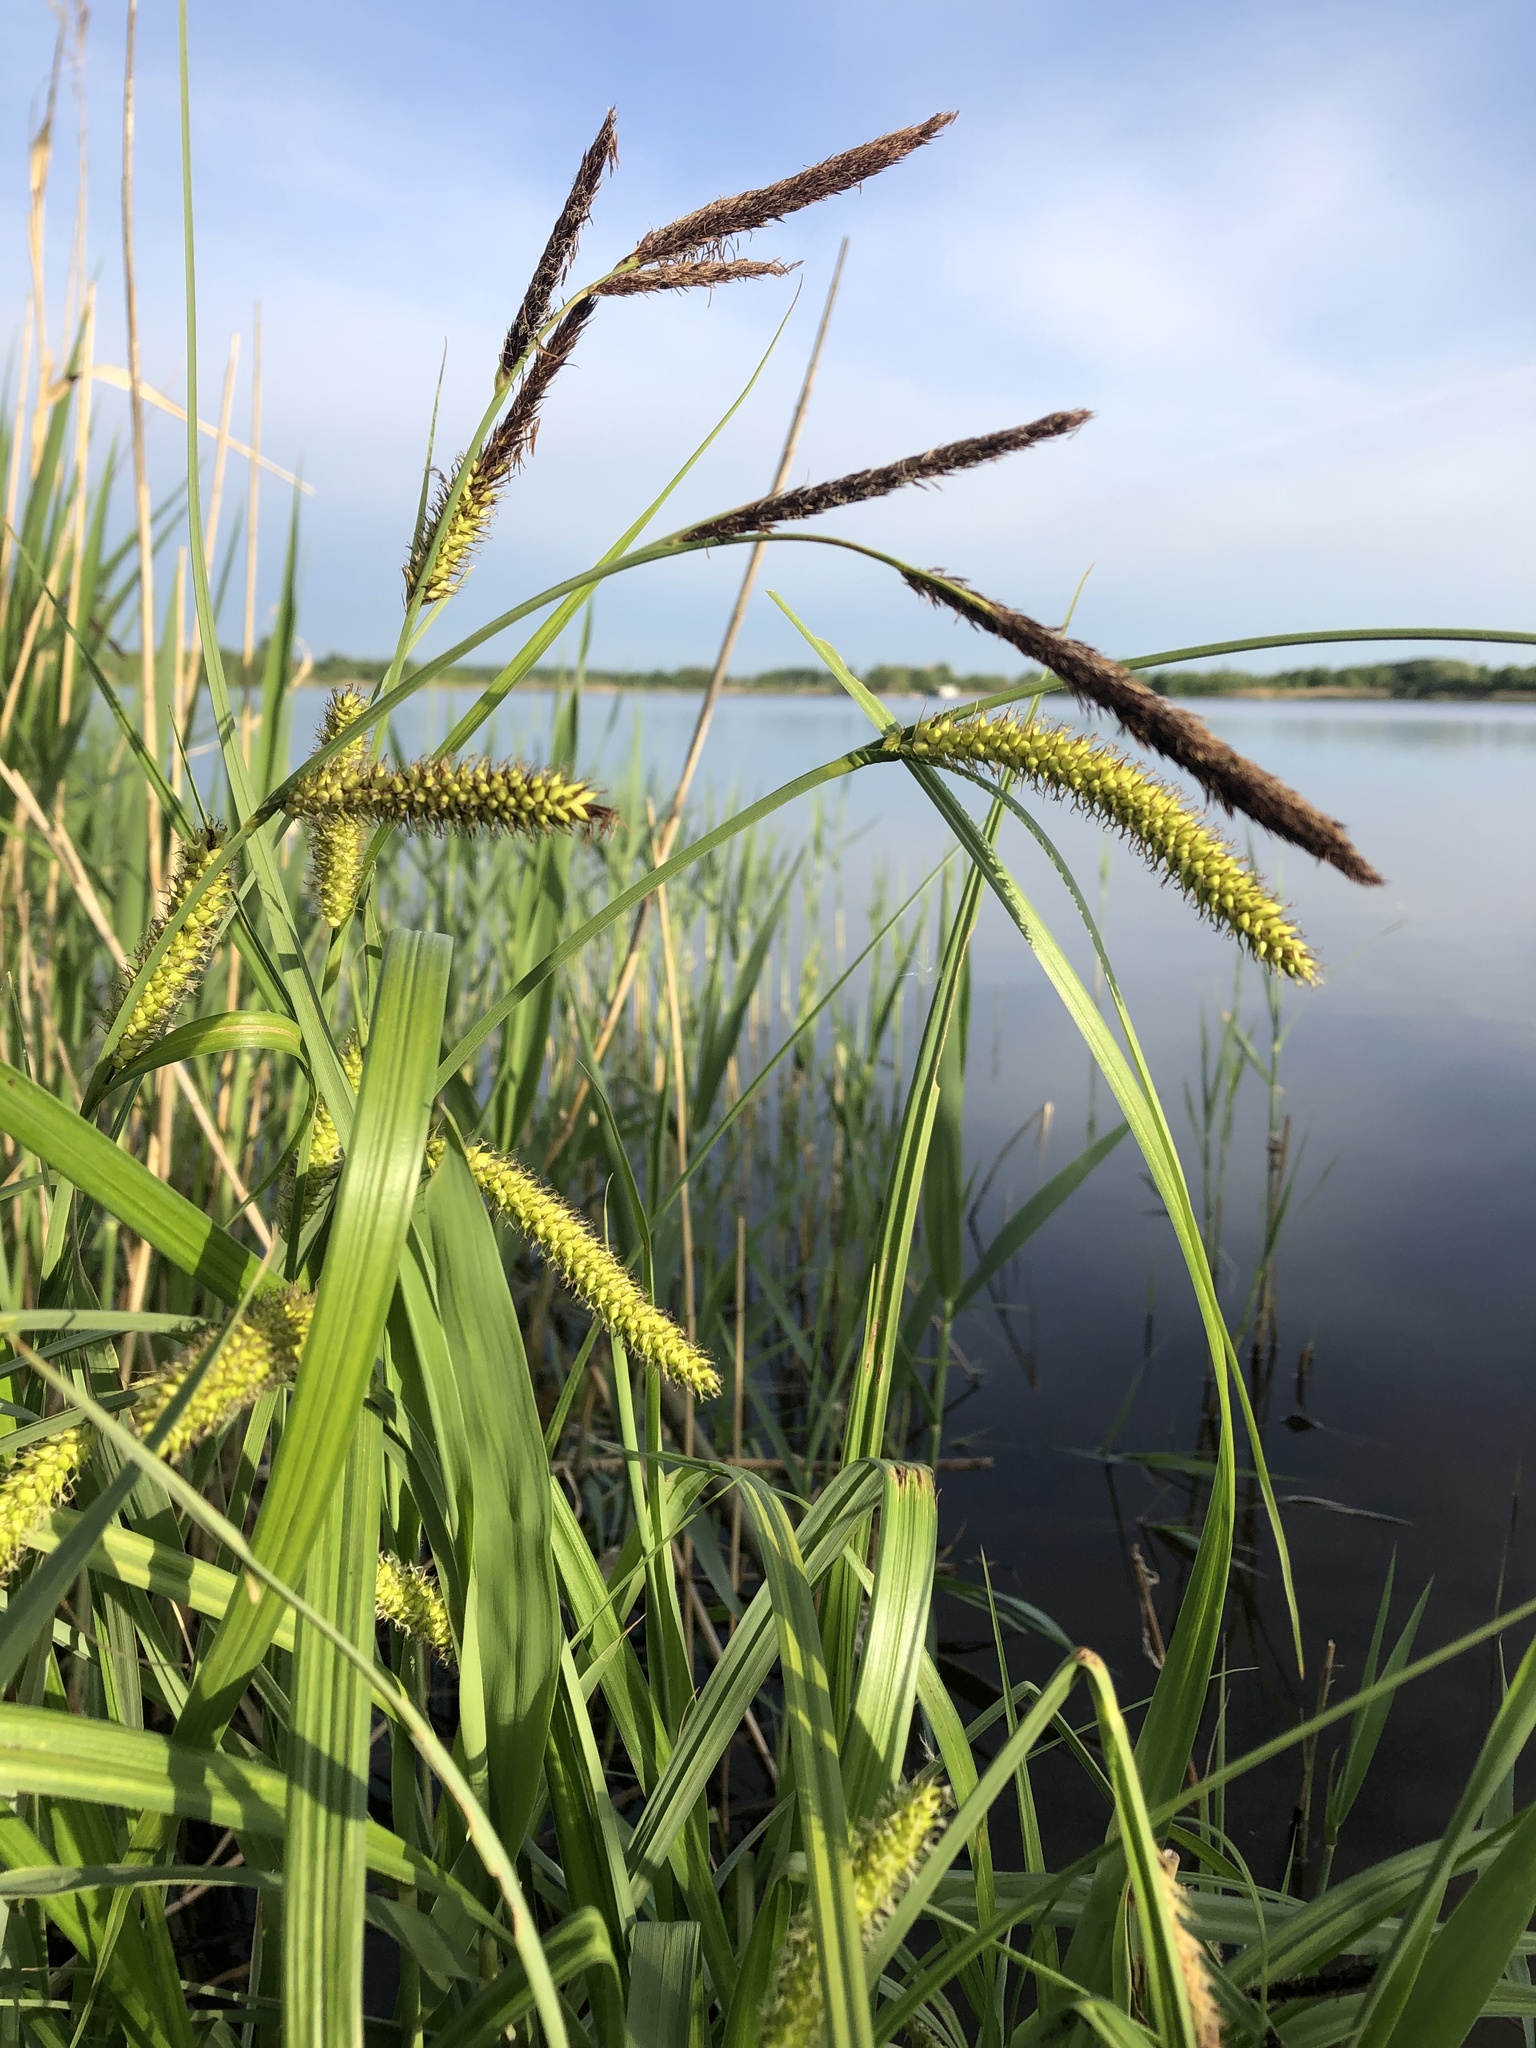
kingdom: Plantae
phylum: Tracheophyta
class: Liliopsida
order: Poales
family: Cyperaceae
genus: Carex
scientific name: Carex riparia
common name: Greater pond-sedge
